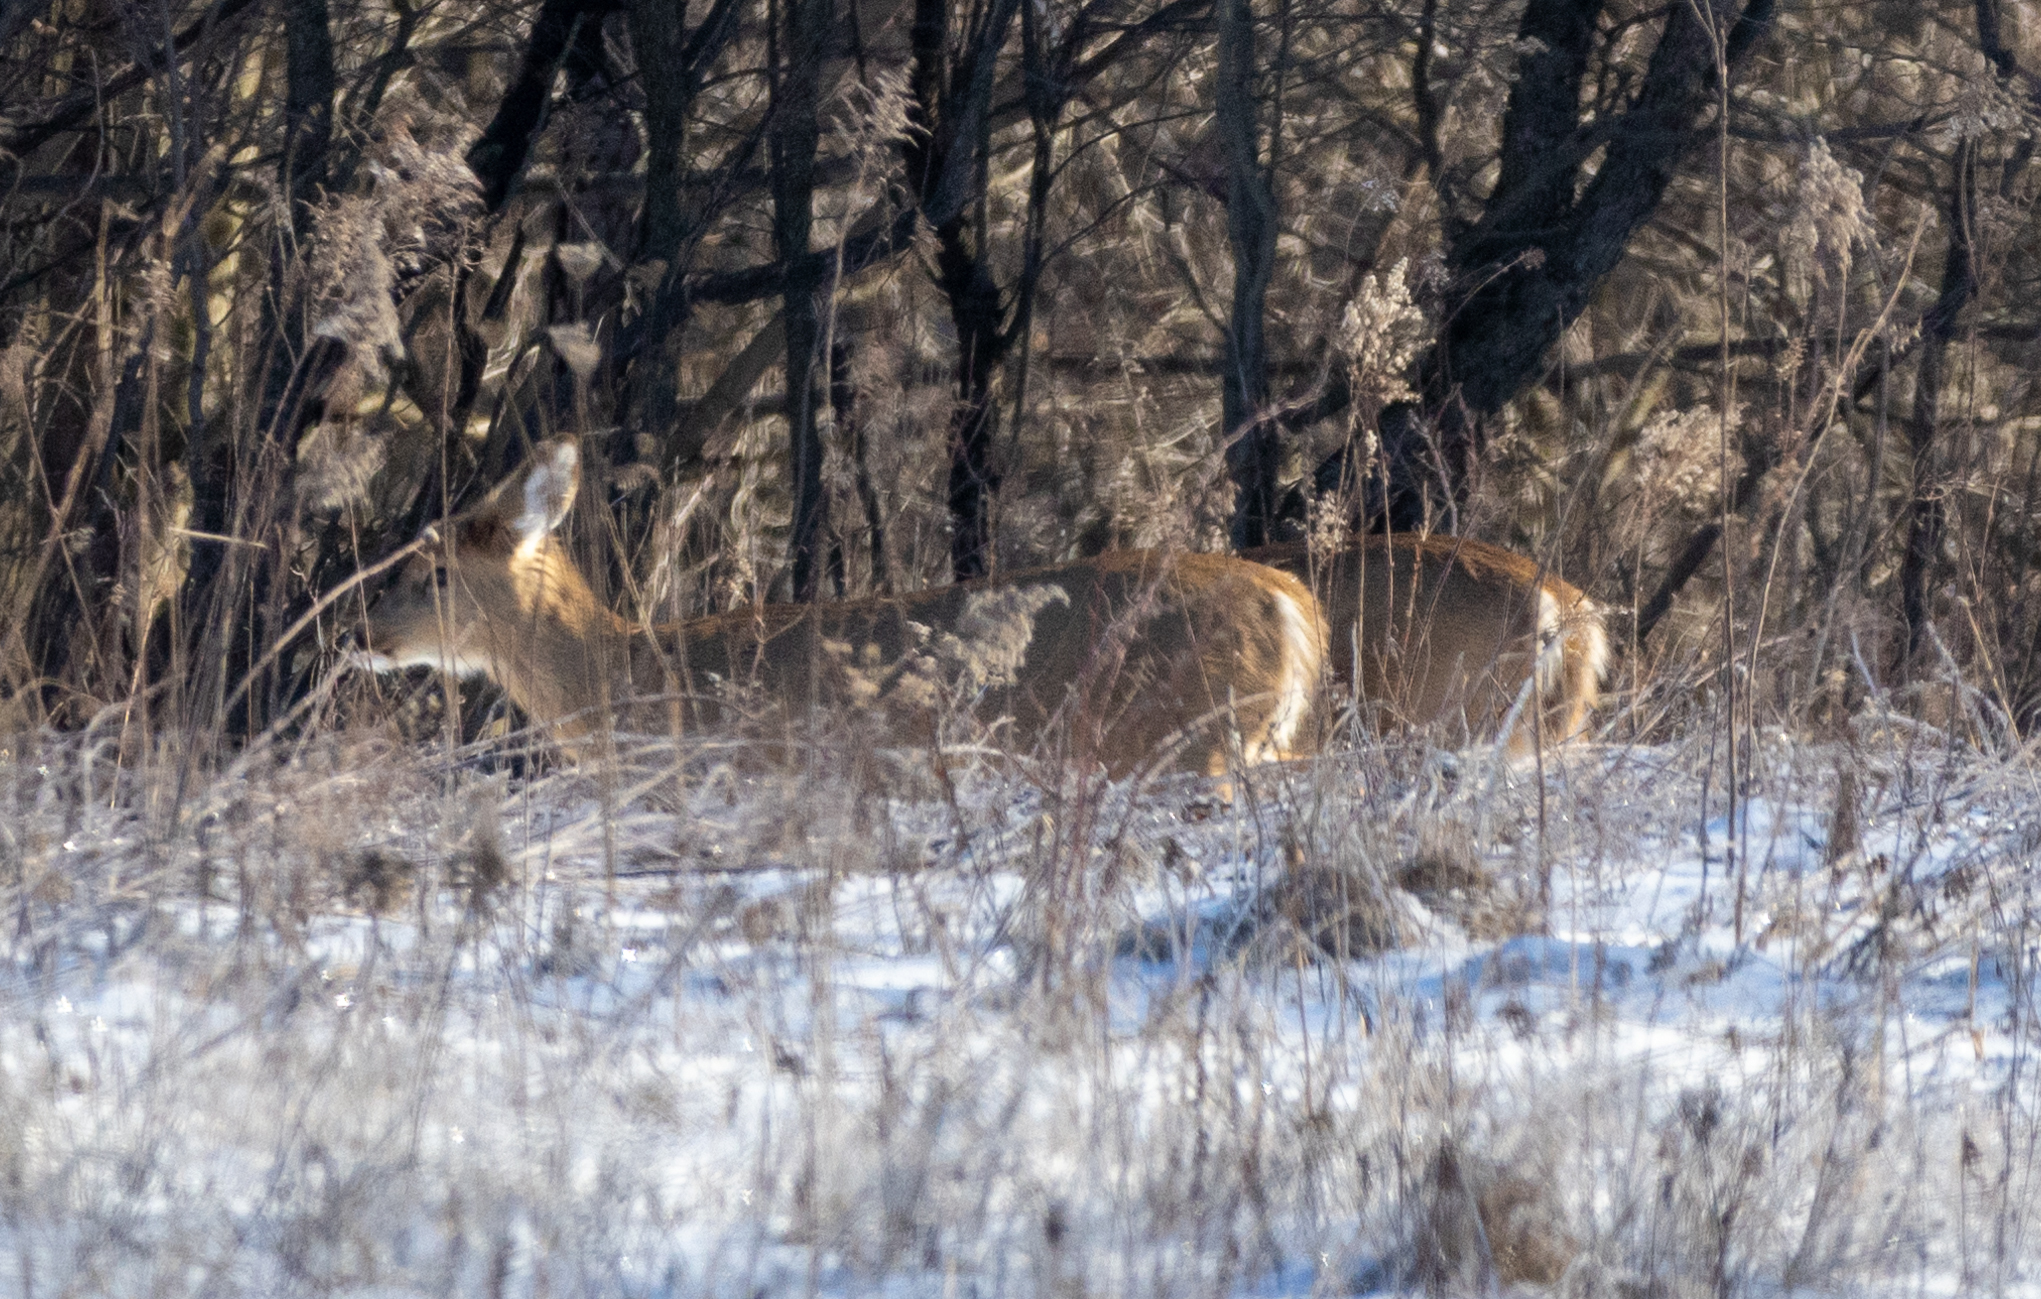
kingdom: Animalia
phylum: Chordata
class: Mammalia
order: Artiodactyla
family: Cervidae
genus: Odocoileus
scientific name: Odocoileus virginianus
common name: White-tailed deer
